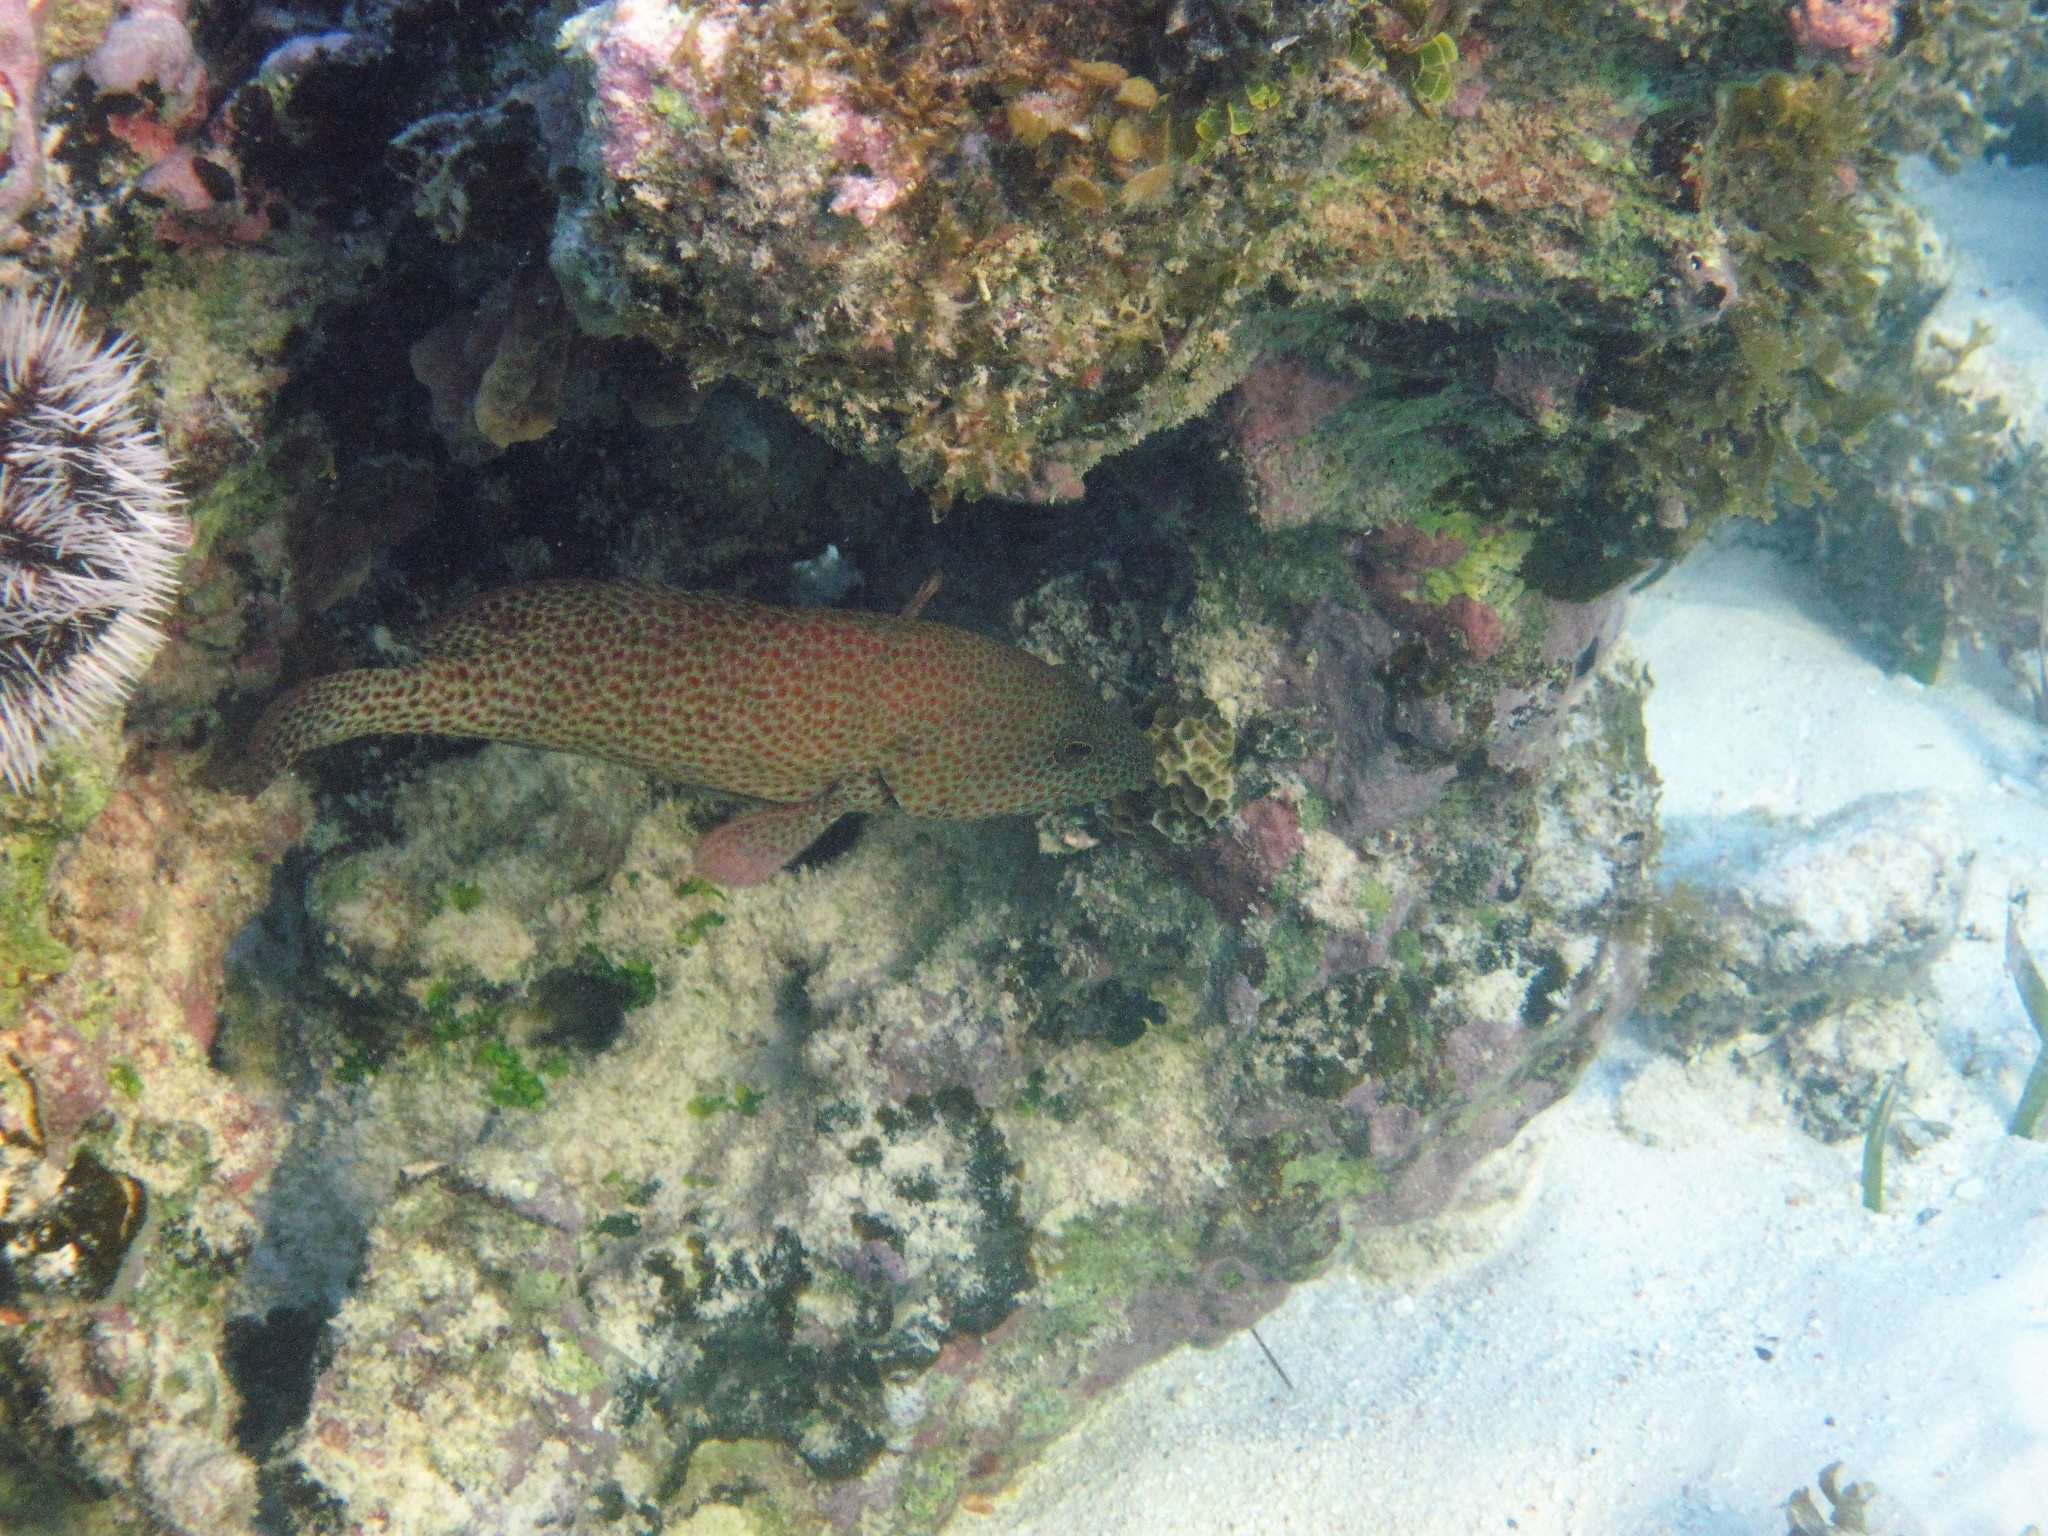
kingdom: Animalia
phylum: Chordata
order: Perciformes
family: Serranidae
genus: Cephalopholis
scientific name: Cephalopholis cruentata
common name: Graysby
